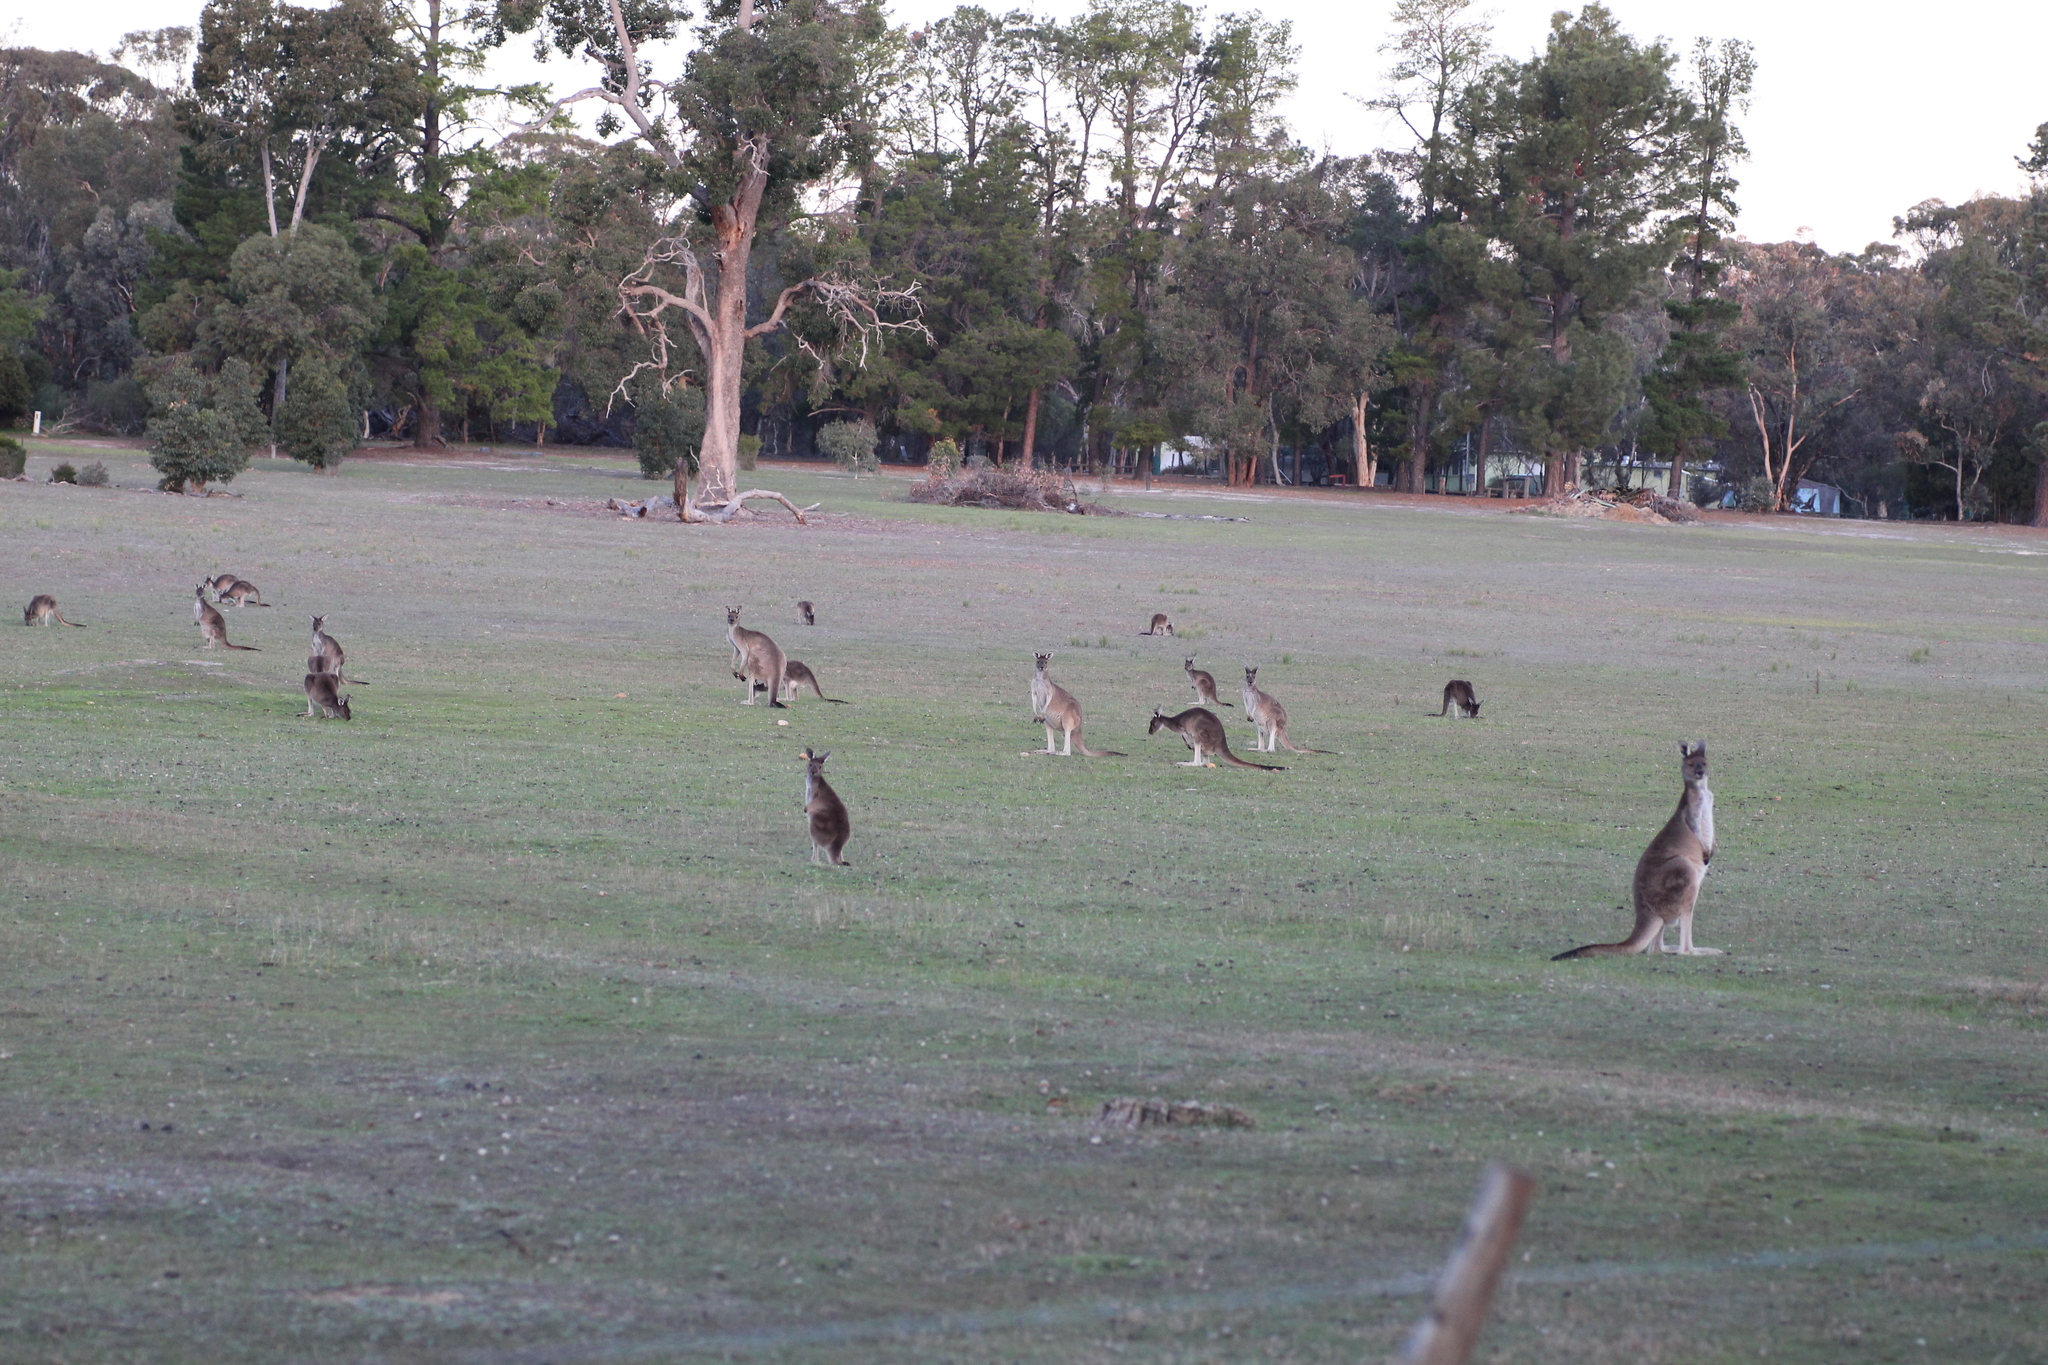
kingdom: Animalia
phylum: Chordata
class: Mammalia
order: Diprotodontia
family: Macropodidae
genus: Macropus
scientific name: Macropus fuliginosus
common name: Western grey kangaroo
